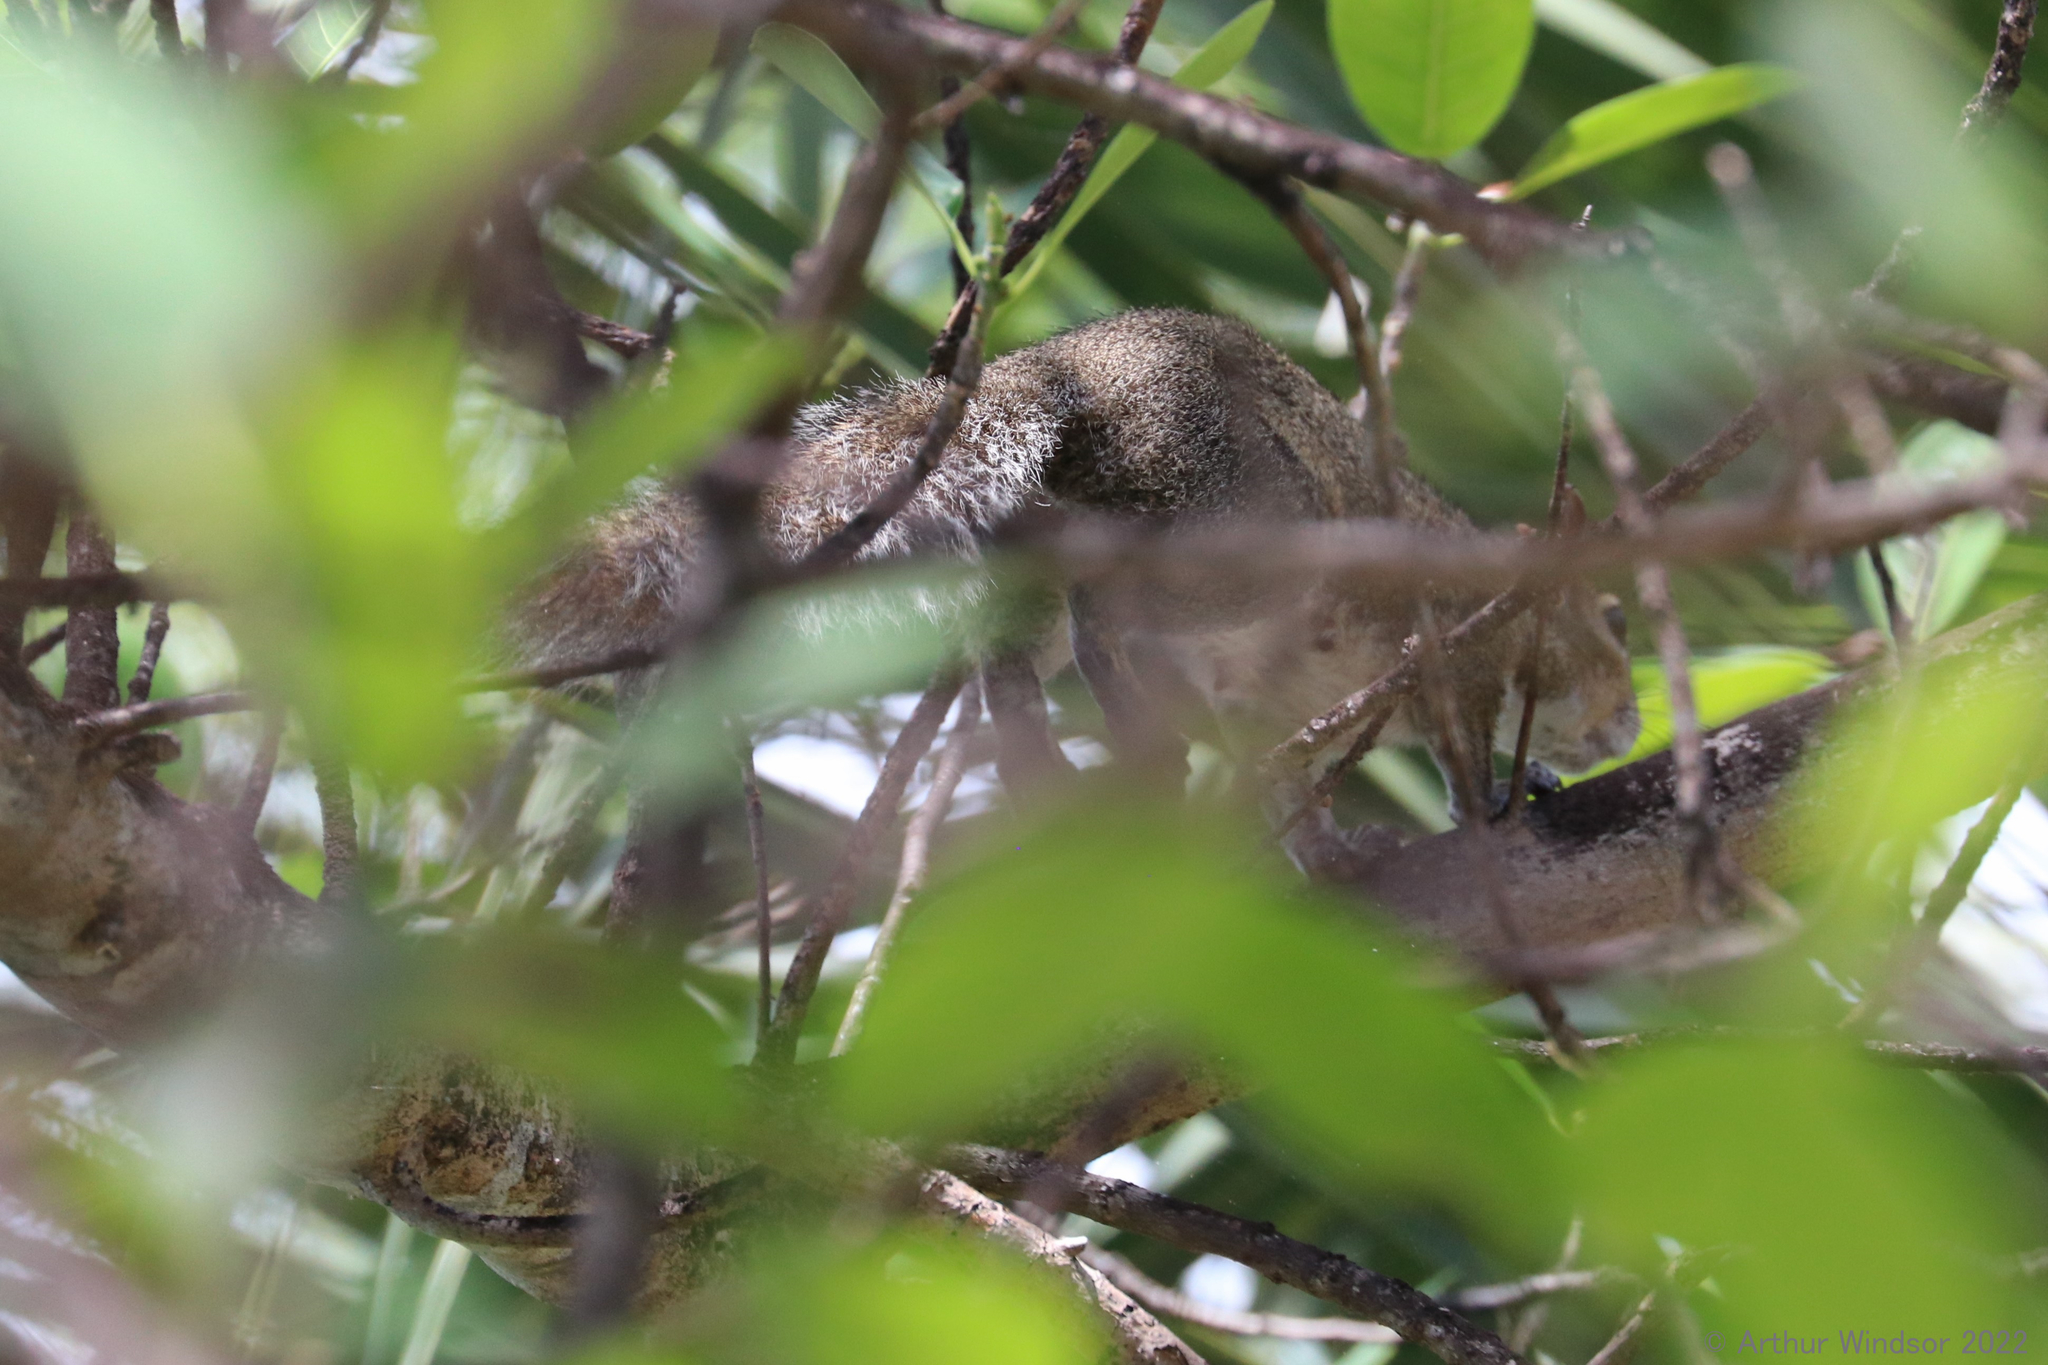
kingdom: Animalia
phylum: Chordata
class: Mammalia
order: Rodentia
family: Sciuridae
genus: Sciurus
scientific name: Sciurus carolinensis
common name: Eastern gray squirrel
